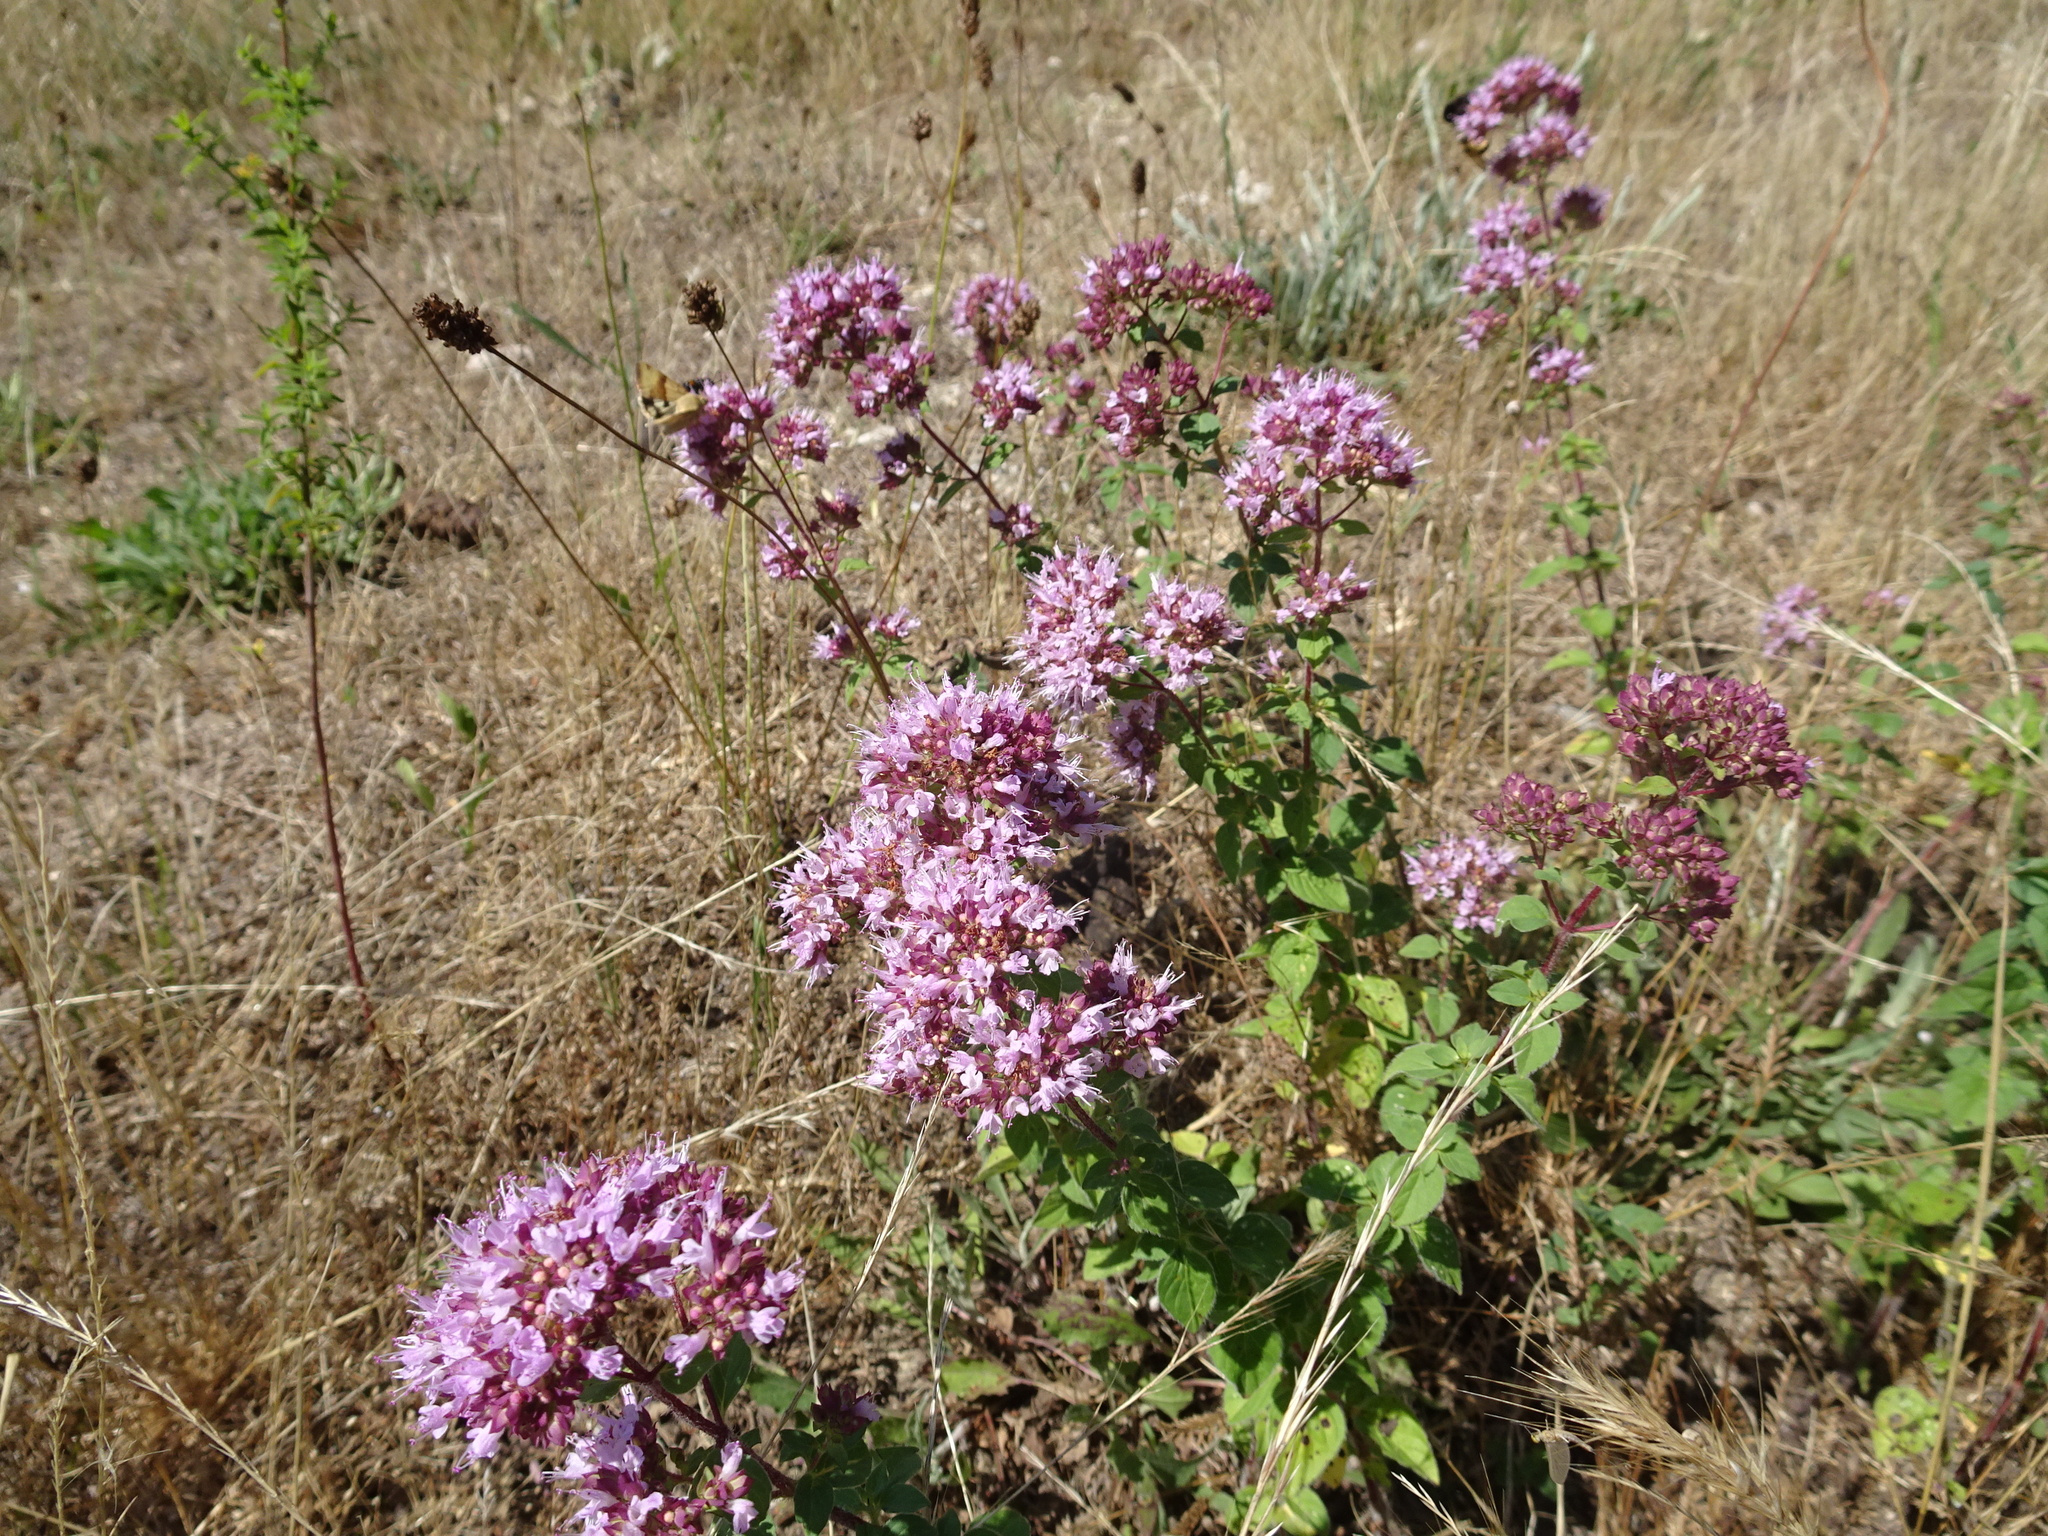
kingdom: Plantae
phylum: Tracheophyta
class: Magnoliopsida
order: Lamiales
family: Lamiaceae
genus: Origanum
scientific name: Origanum vulgare
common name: Wild marjoram
